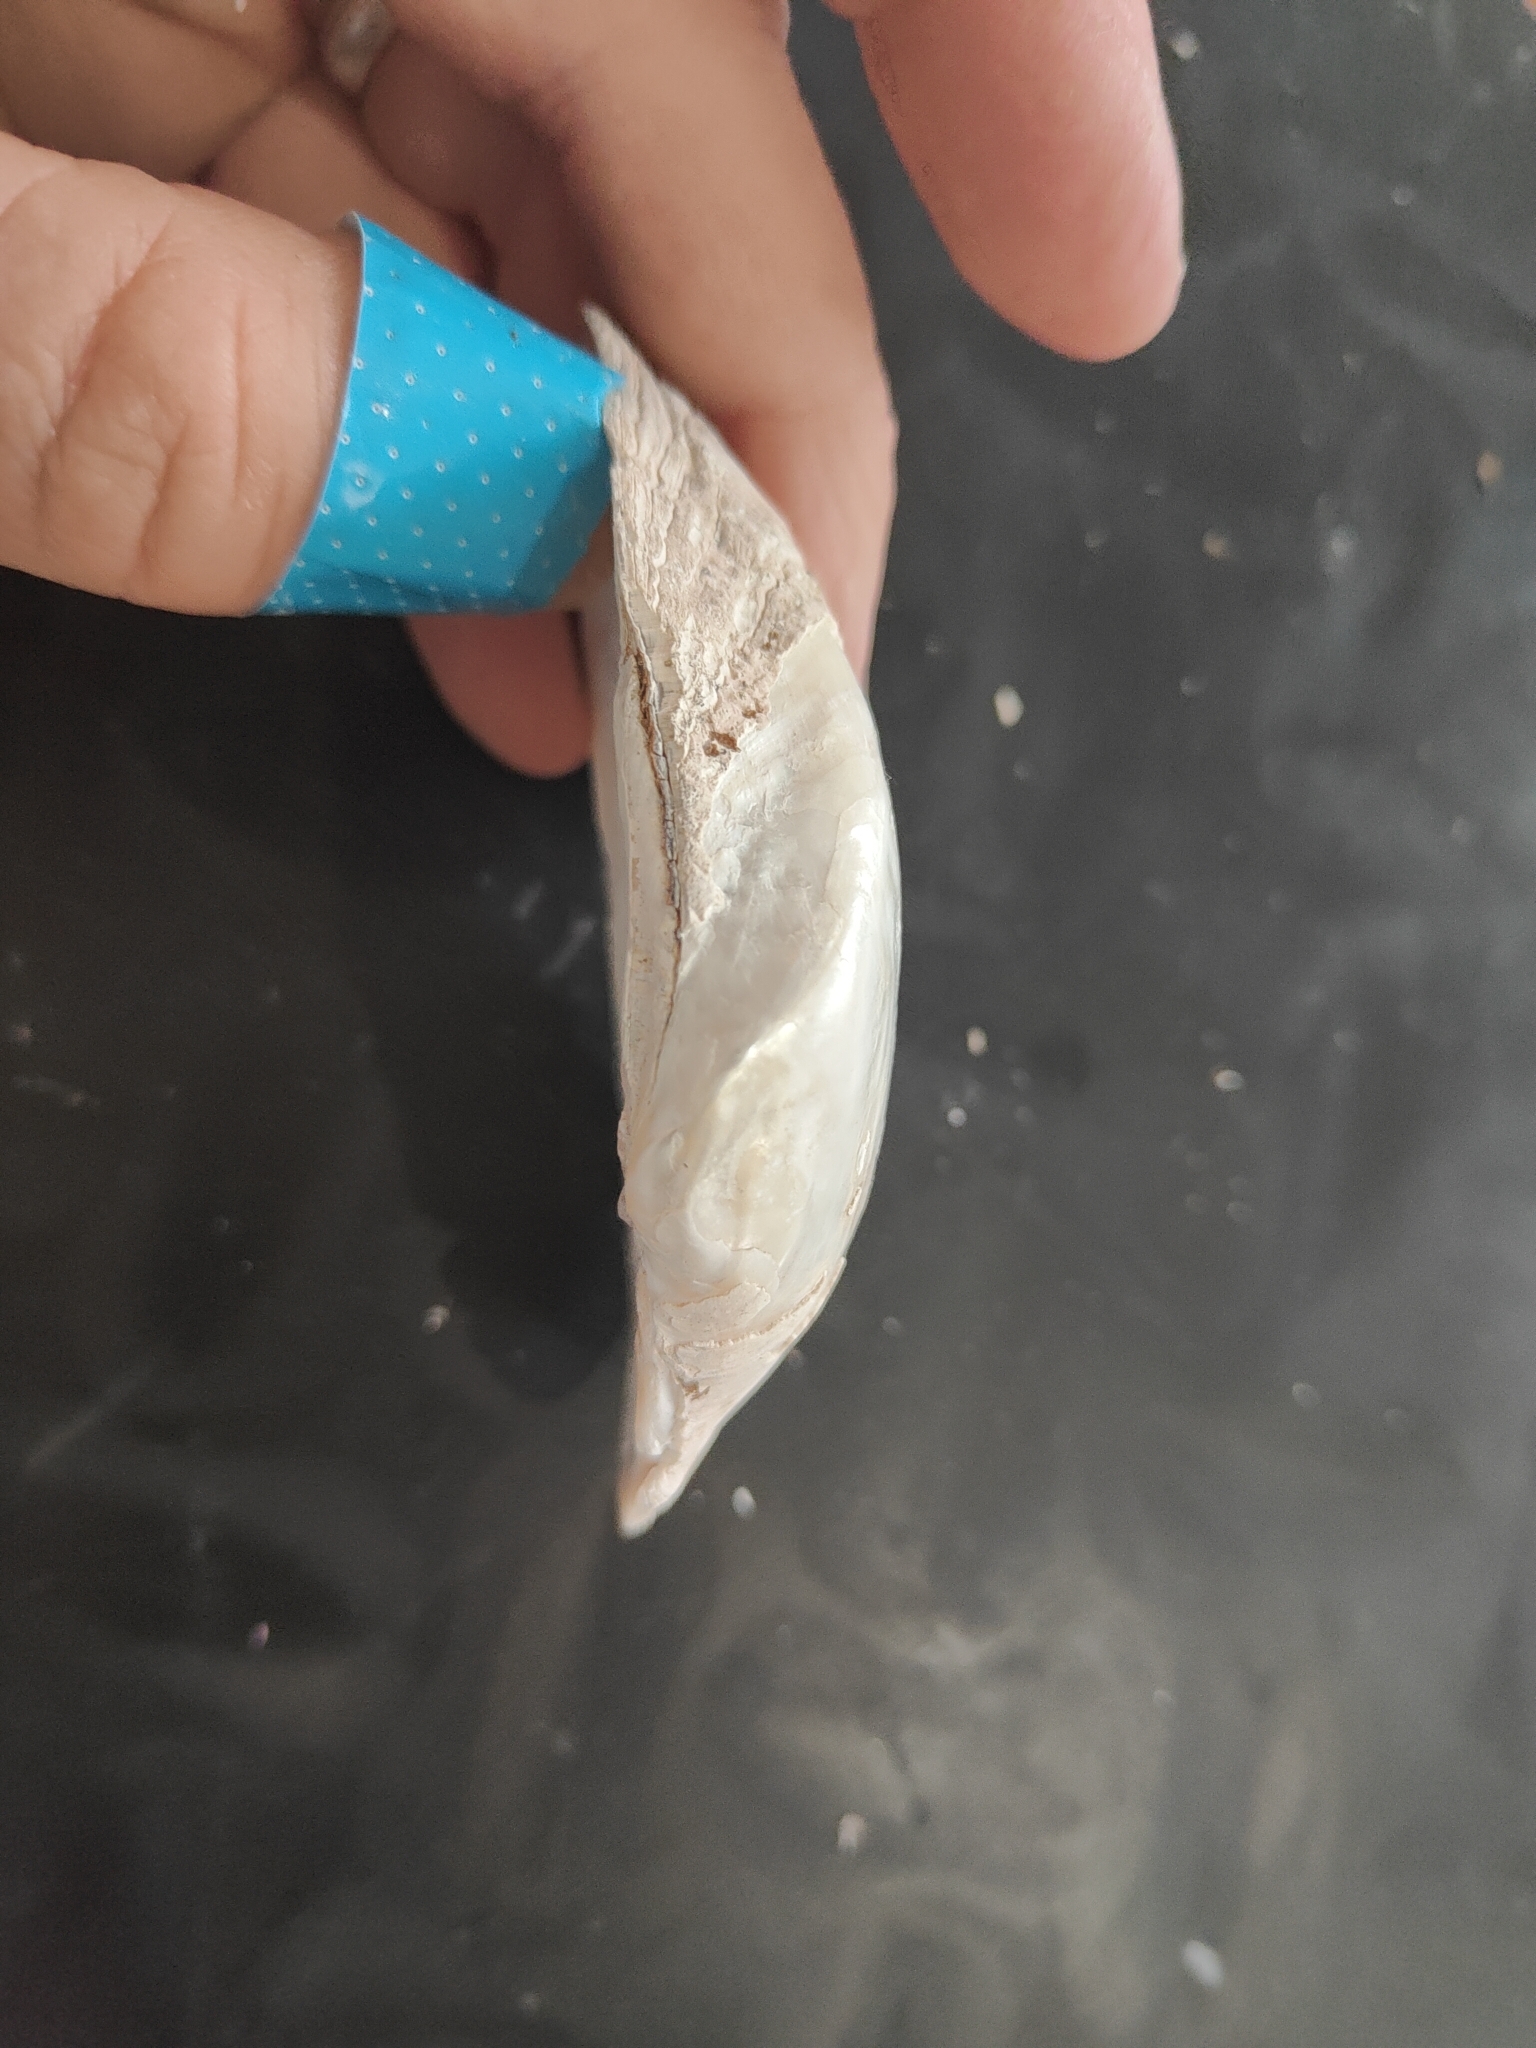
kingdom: Animalia
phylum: Mollusca
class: Bivalvia
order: Unionida
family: Unionidae
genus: Alasmidonta
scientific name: Alasmidonta marginata
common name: Elktoe
